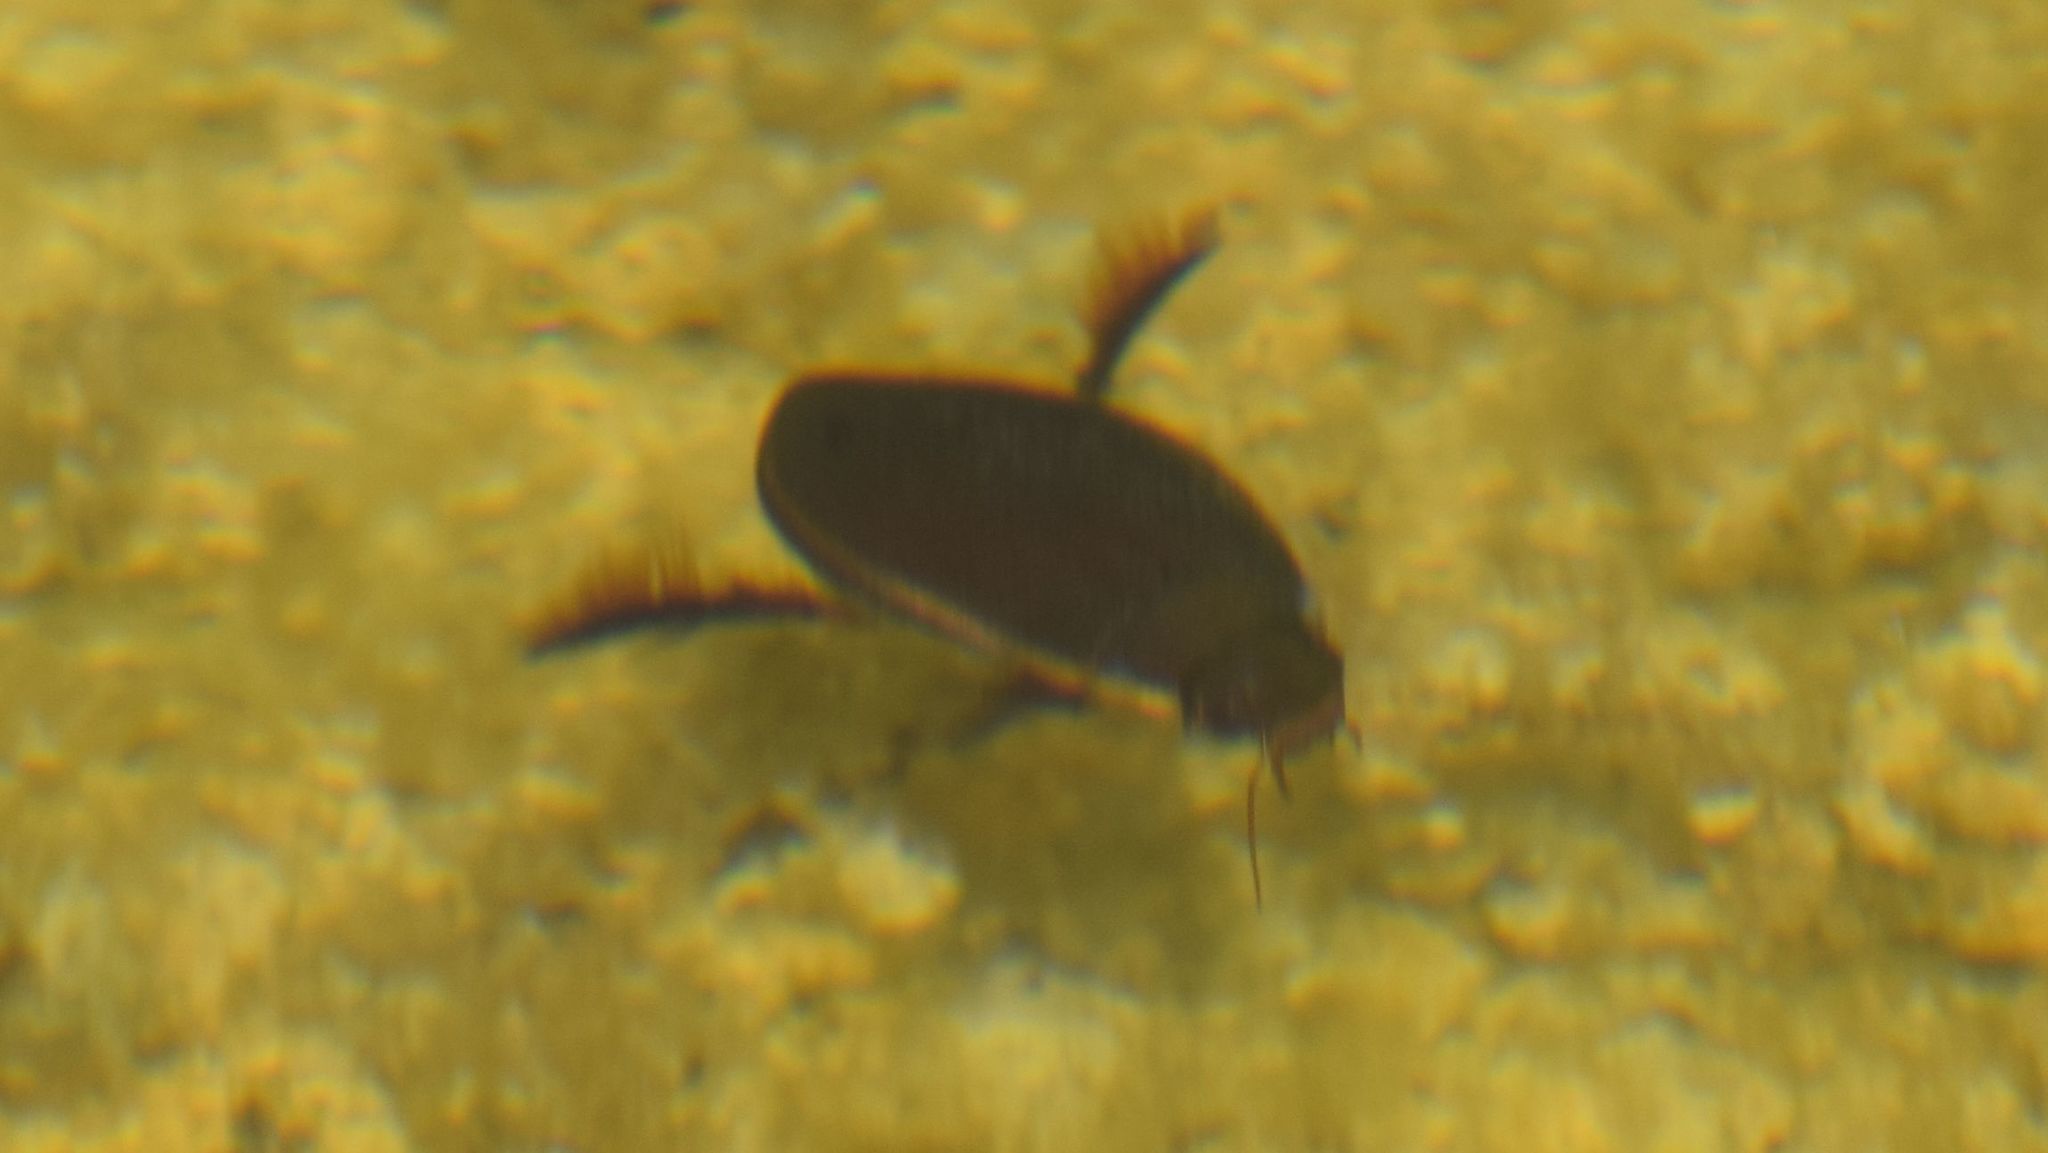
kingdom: Animalia
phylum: Arthropoda
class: Insecta
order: Coleoptera
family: Dytiscidae
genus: Cybister
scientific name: Cybister lateralimarginalis
